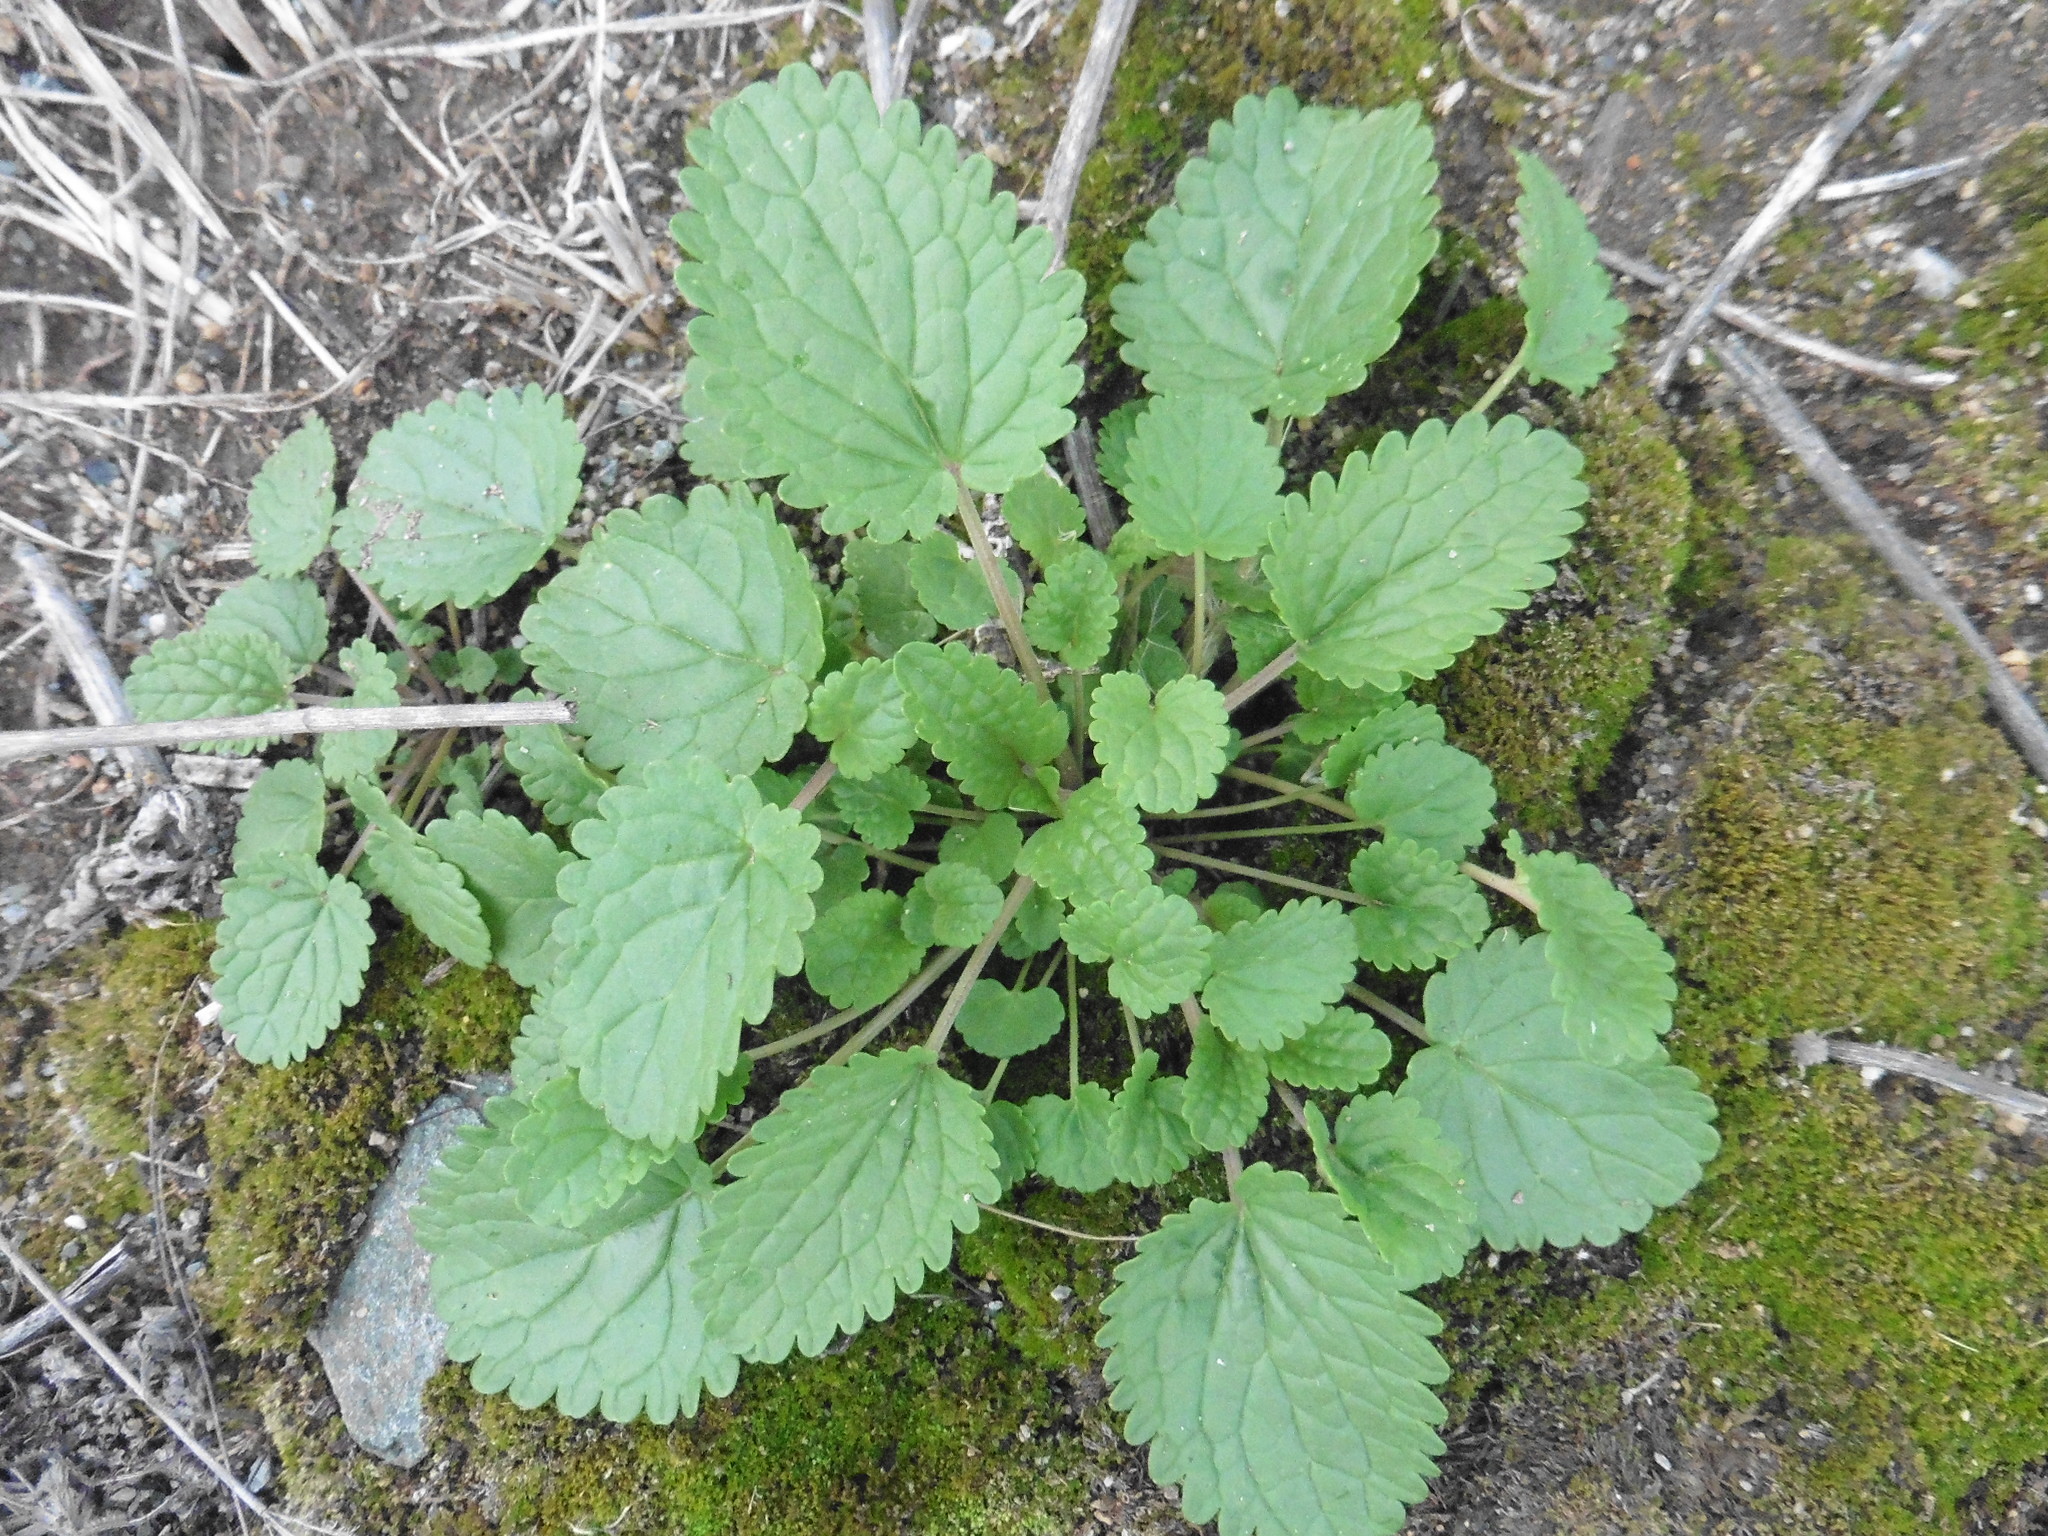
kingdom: Plantae
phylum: Tracheophyta
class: Magnoliopsida
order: Lamiales
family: Lamiaceae
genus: Dracocephalum
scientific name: Dracocephalum thymiflorum
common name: Thymeleaf dragonhead
